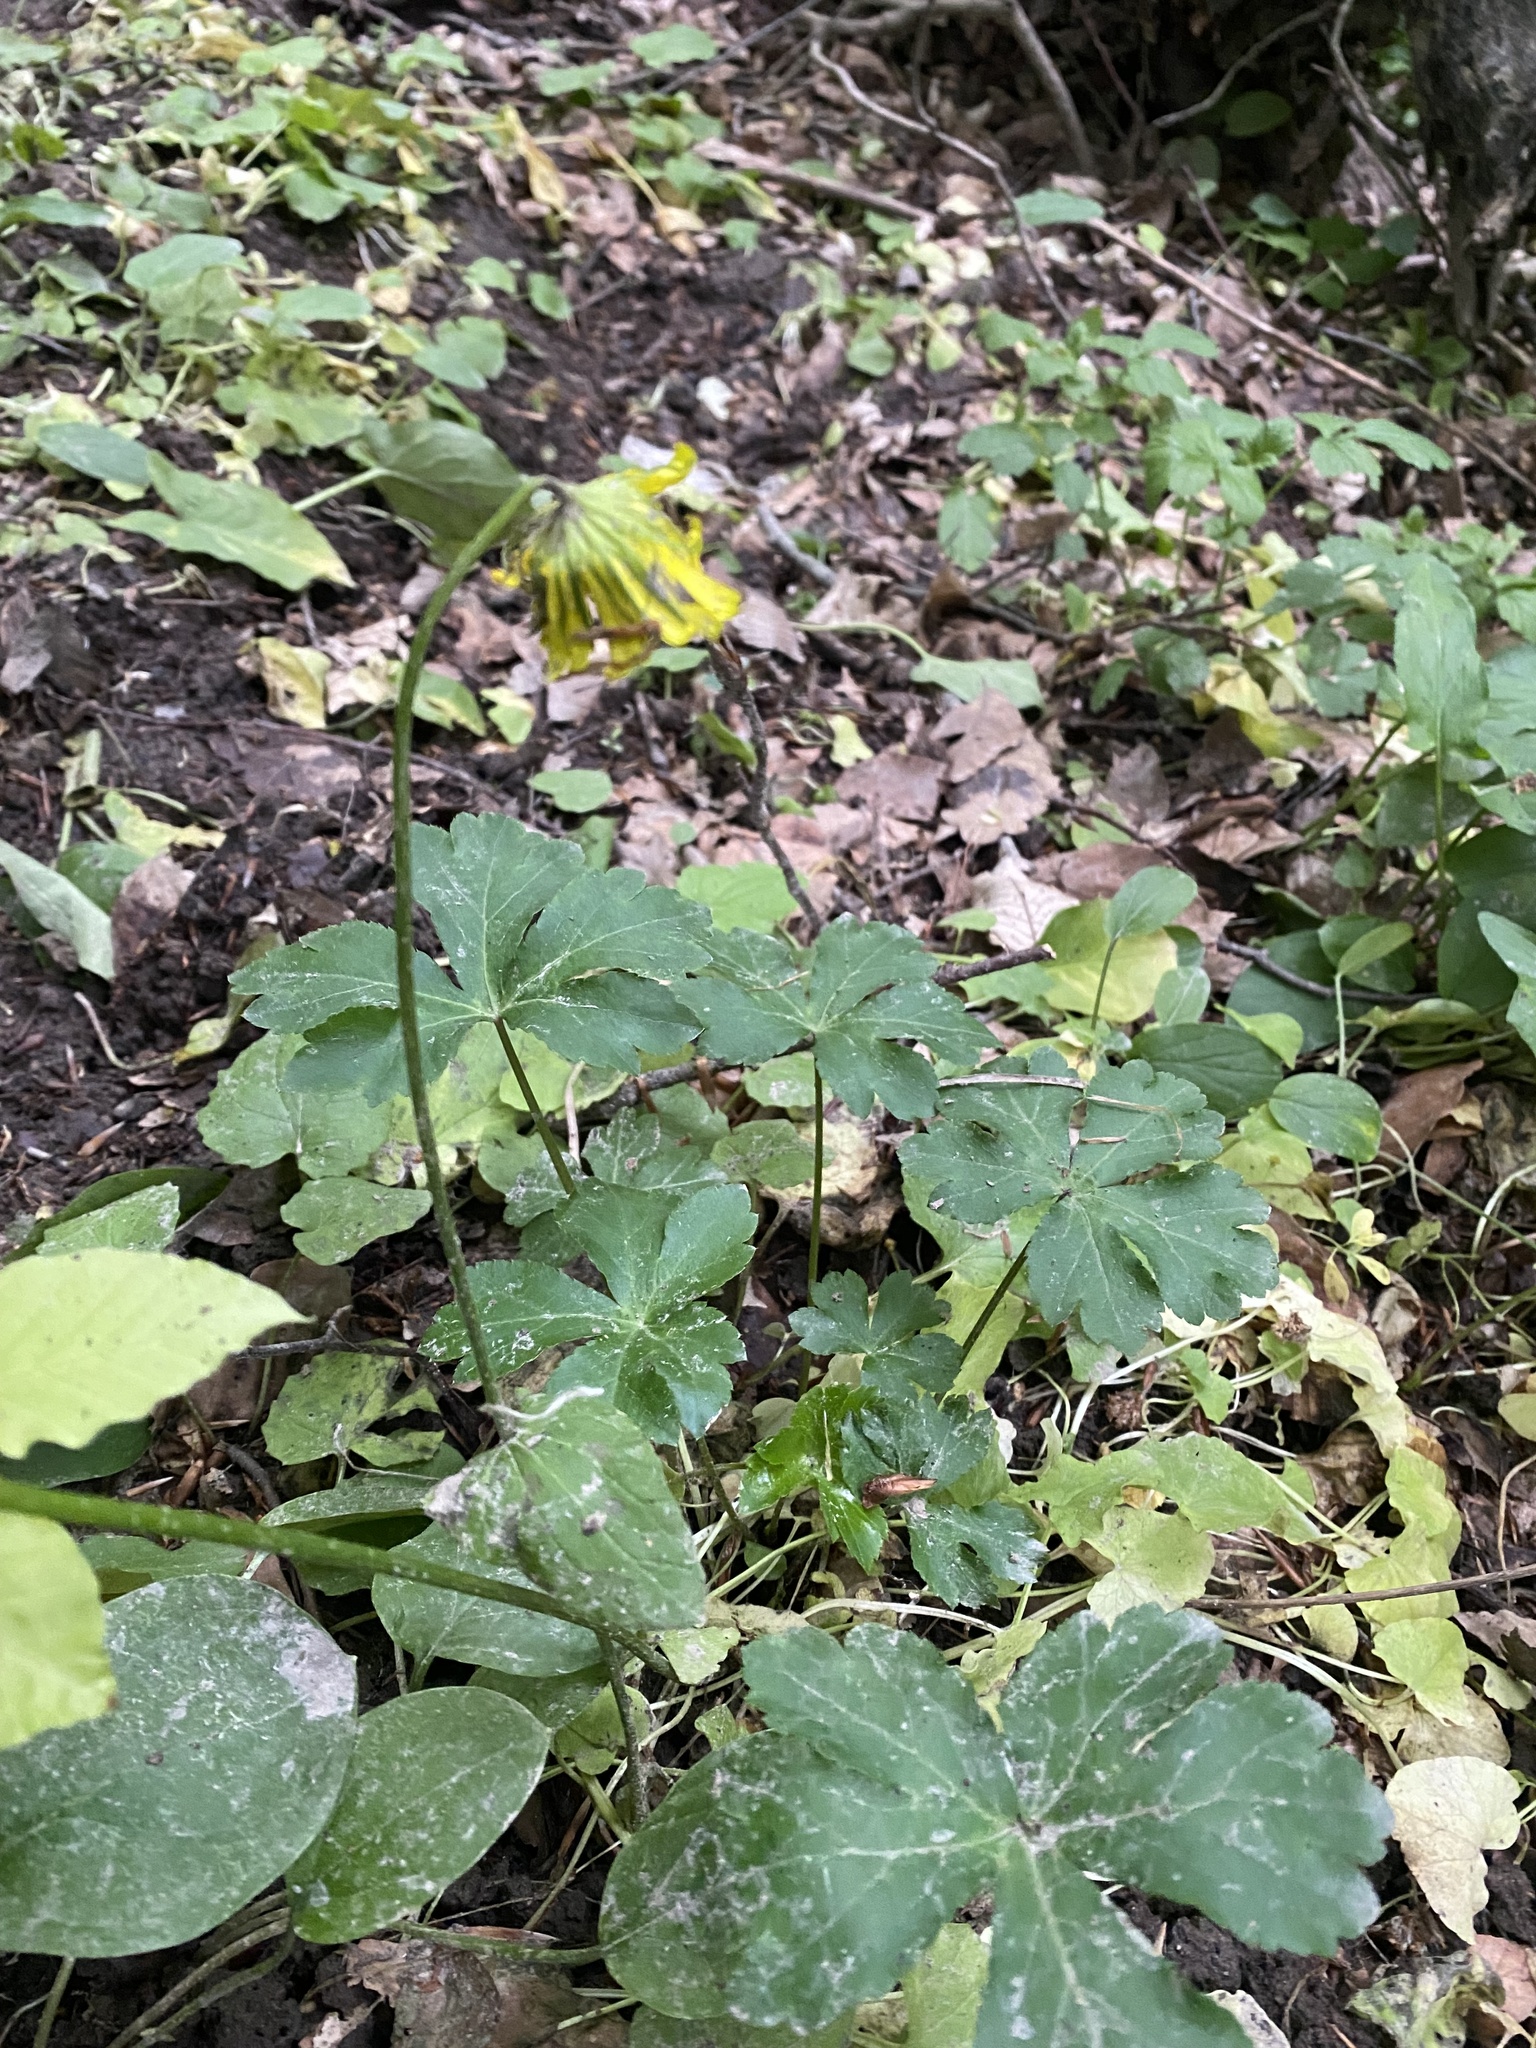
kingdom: Plantae
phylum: Tracheophyta
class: Magnoliopsida
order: Asterales
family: Asteraceae
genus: Doronicum
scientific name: Doronicum
